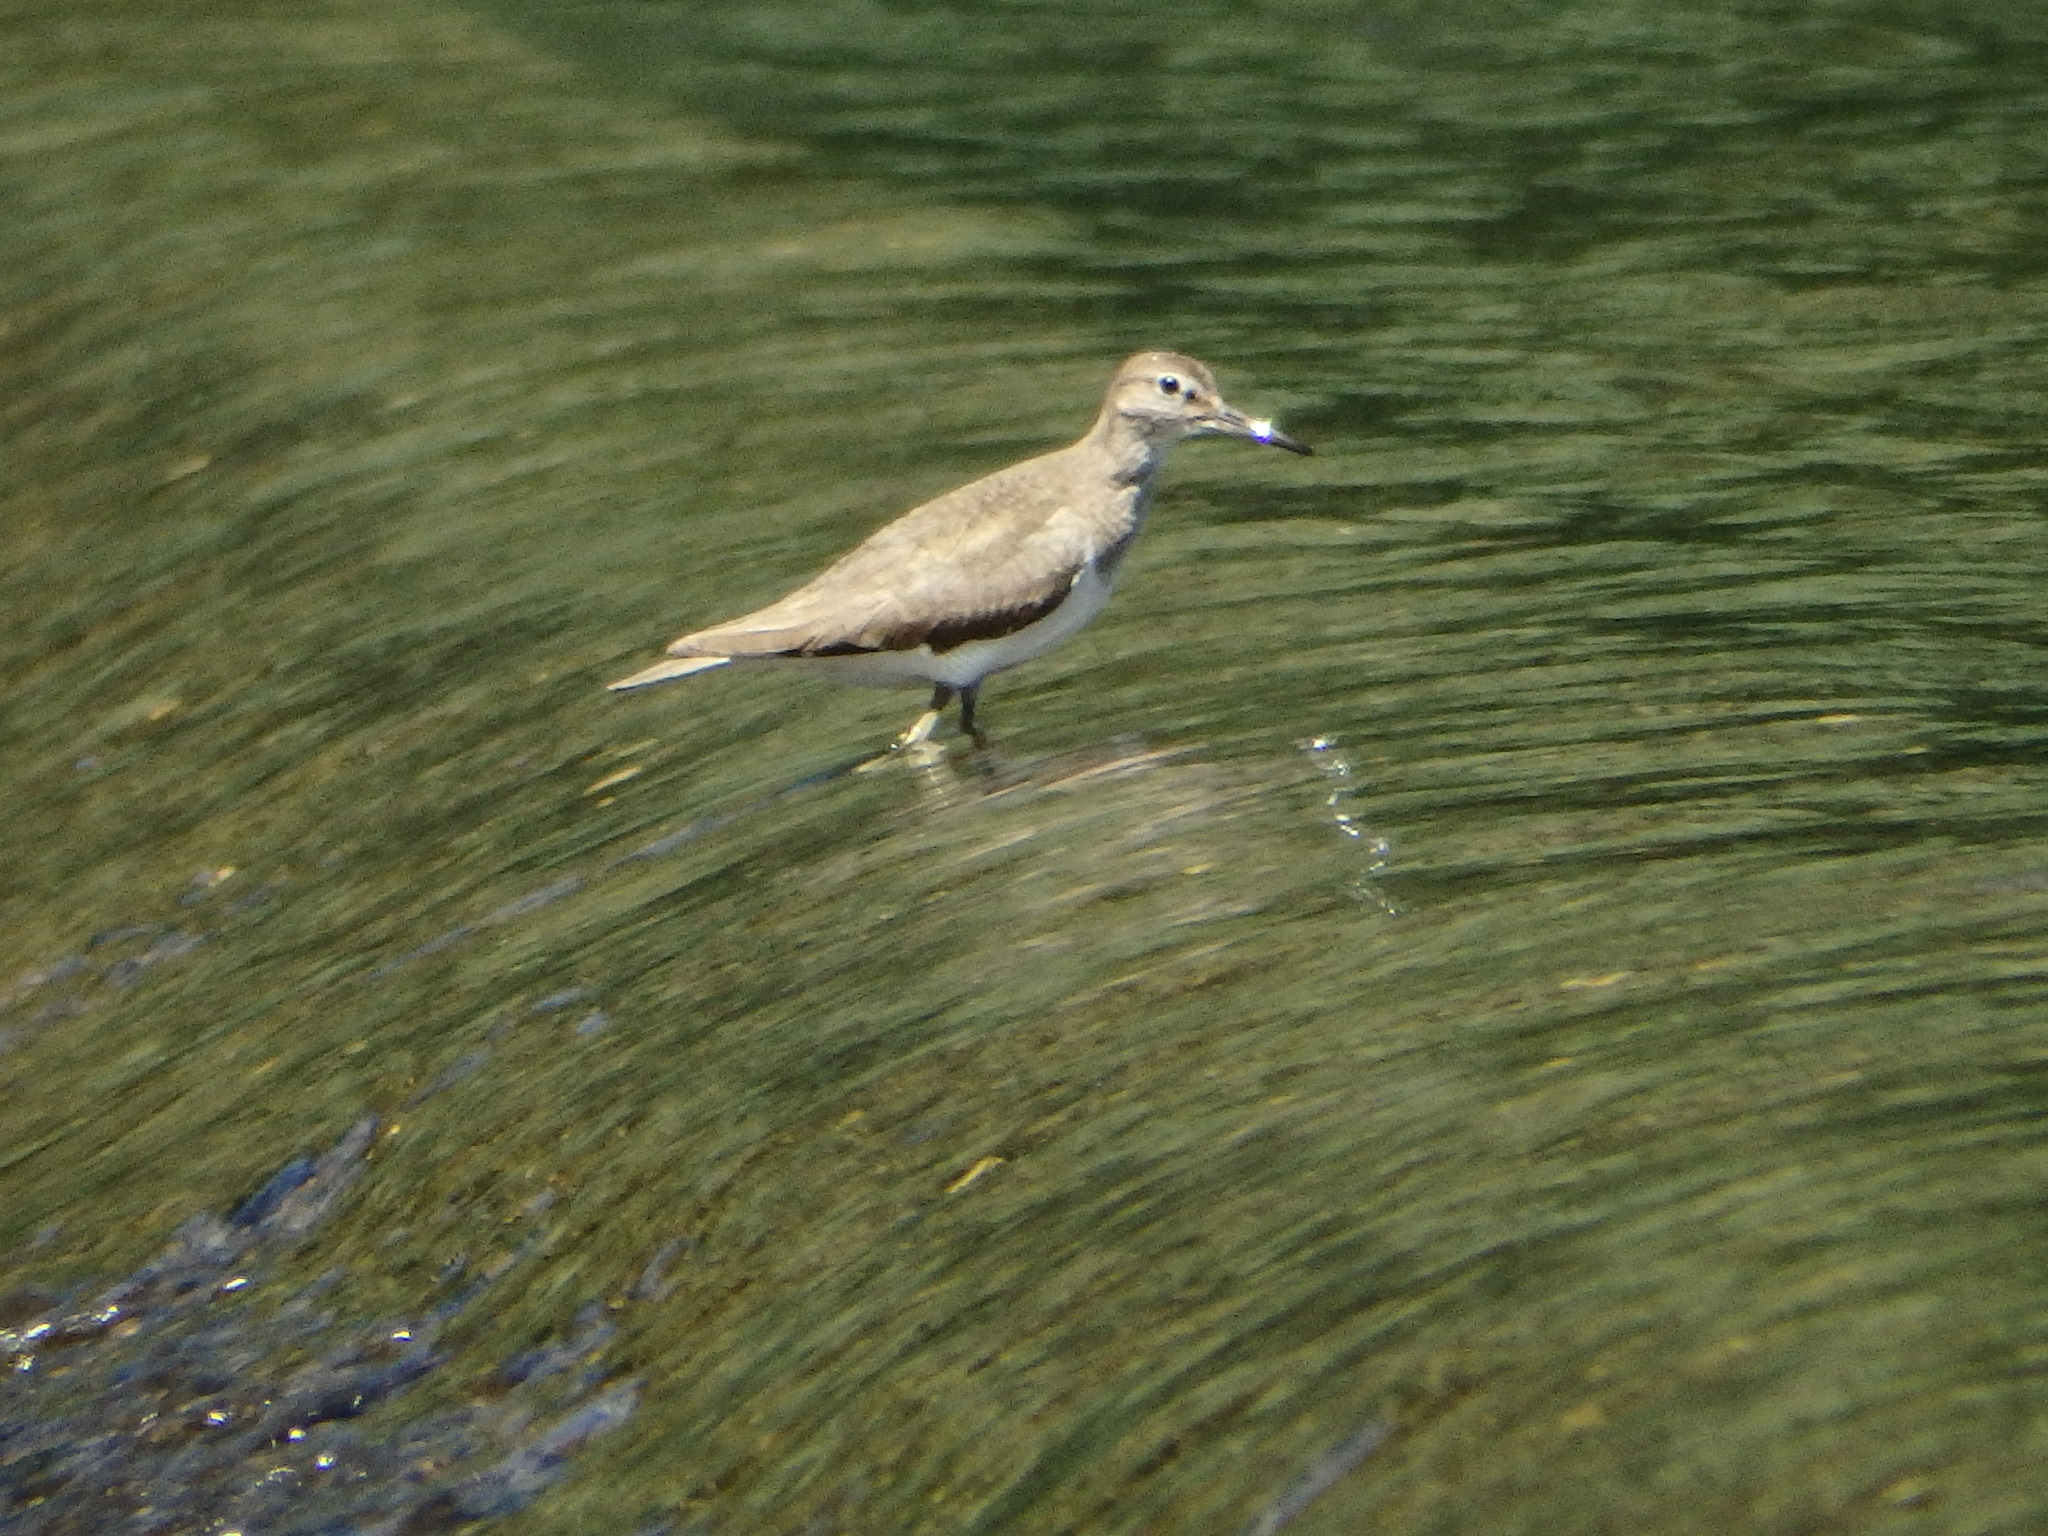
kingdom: Animalia
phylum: Chordata
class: Aves
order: Charadriiformes
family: Scolopacidae
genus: Actitis
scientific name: Actitis hypoleucos
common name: Common sandpiper
